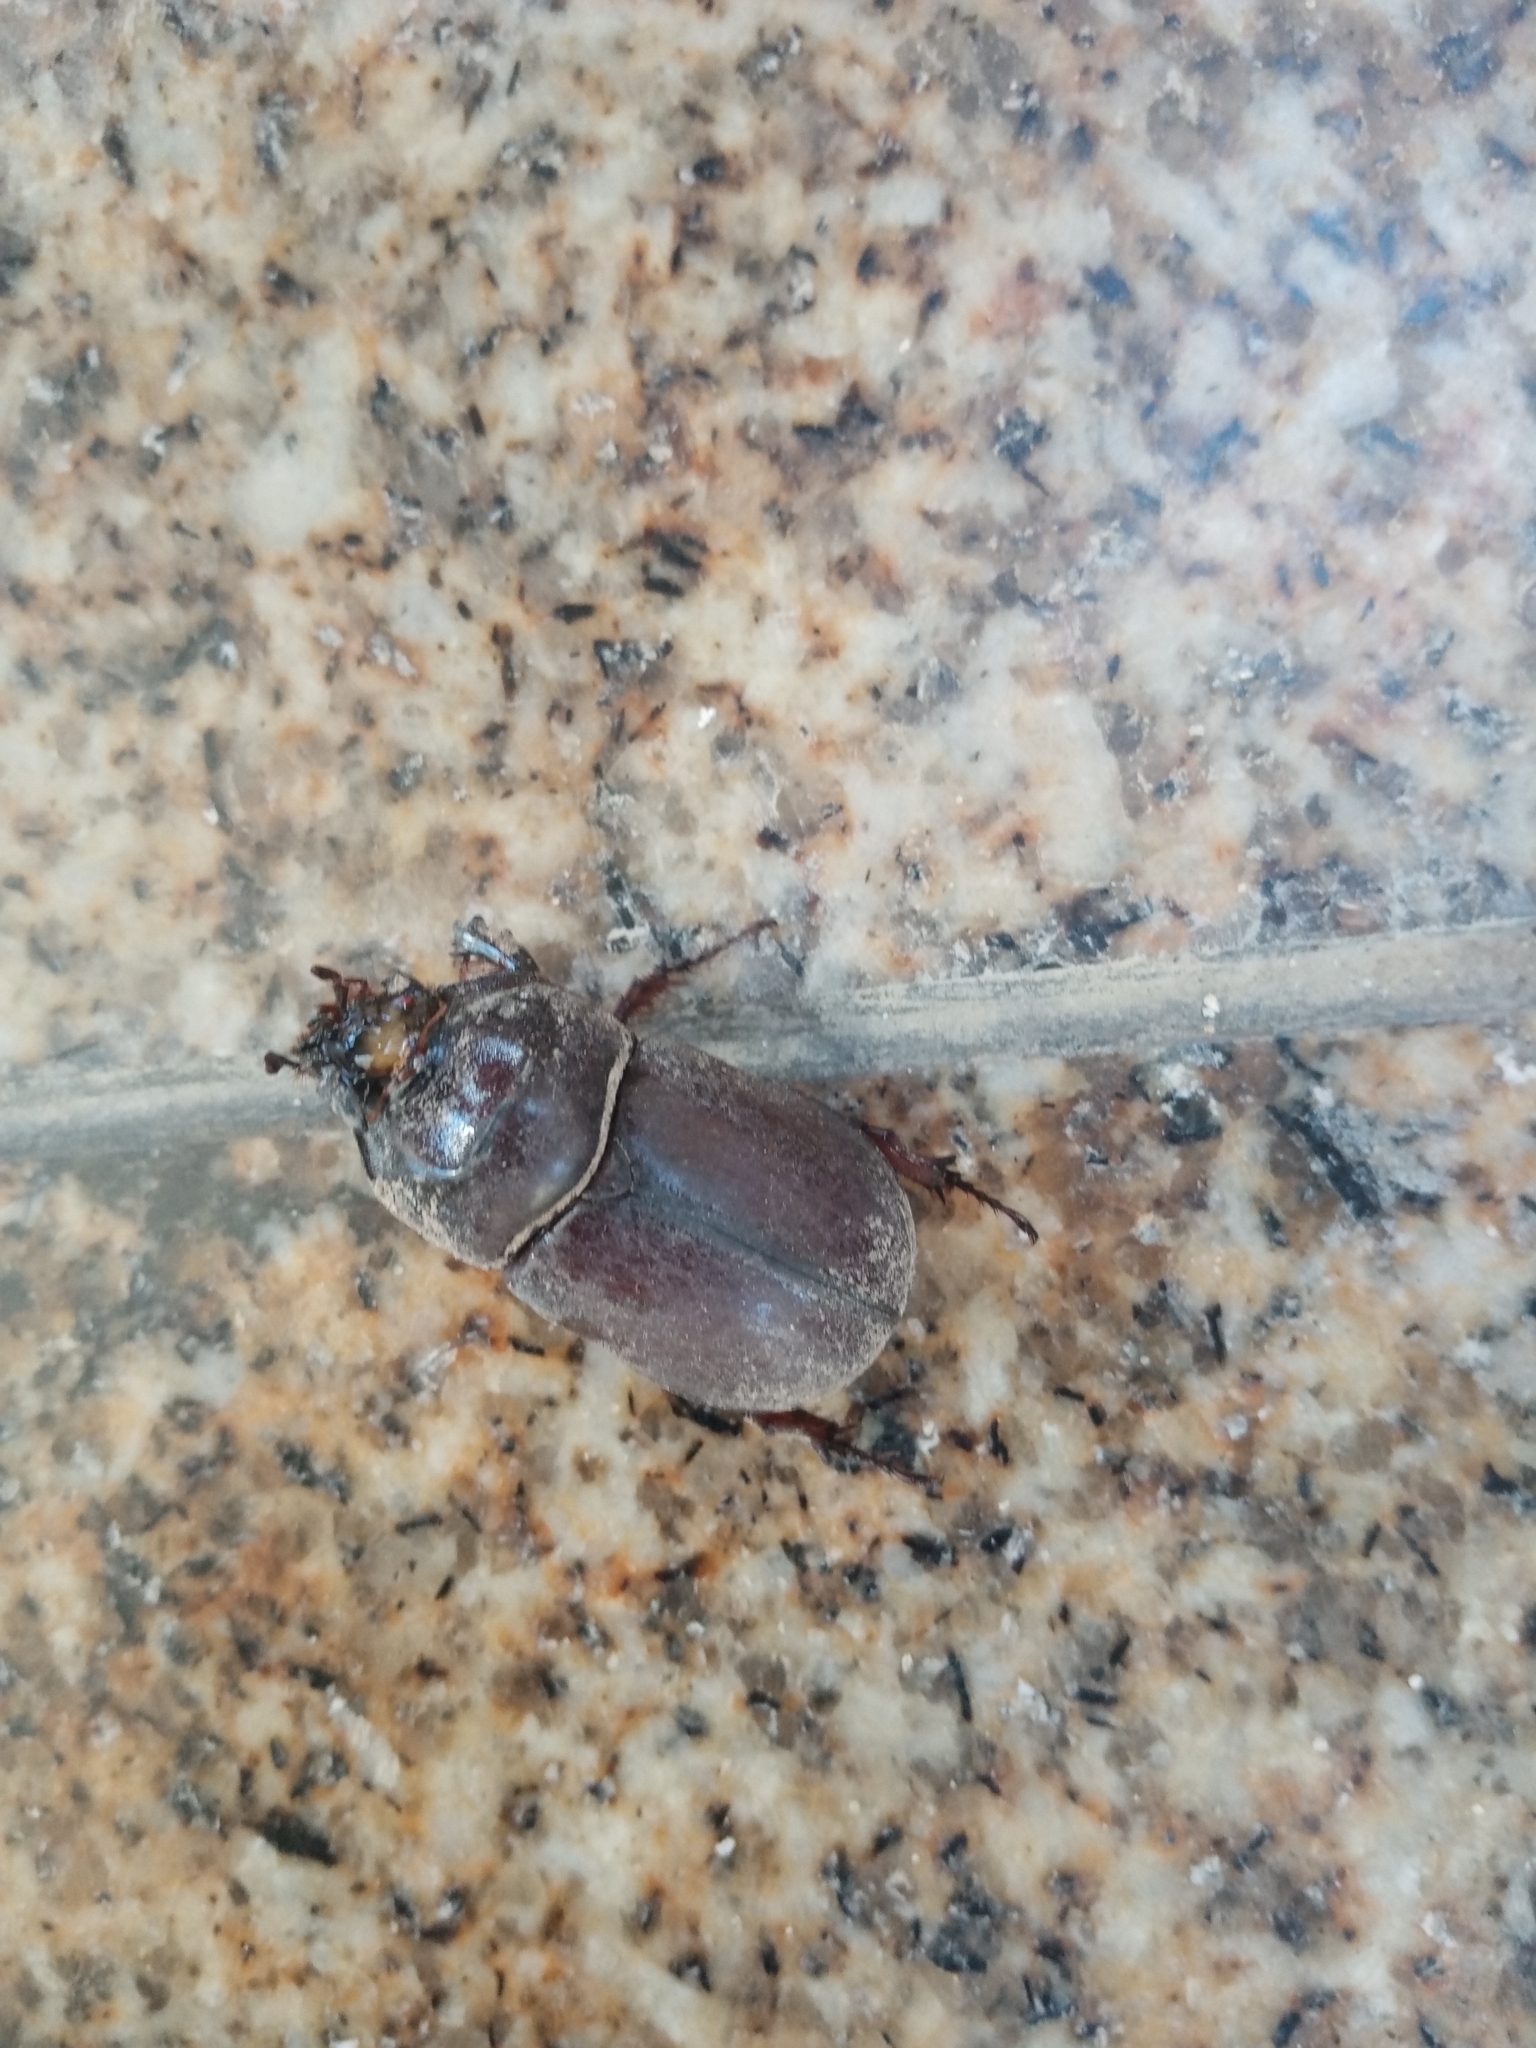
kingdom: Animalia
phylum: Arthropoda
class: Insecta
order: Coleoptera
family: Scarabaeidae
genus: Oryctes
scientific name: Oryctes nasicornis
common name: European rhinoceros beetle
